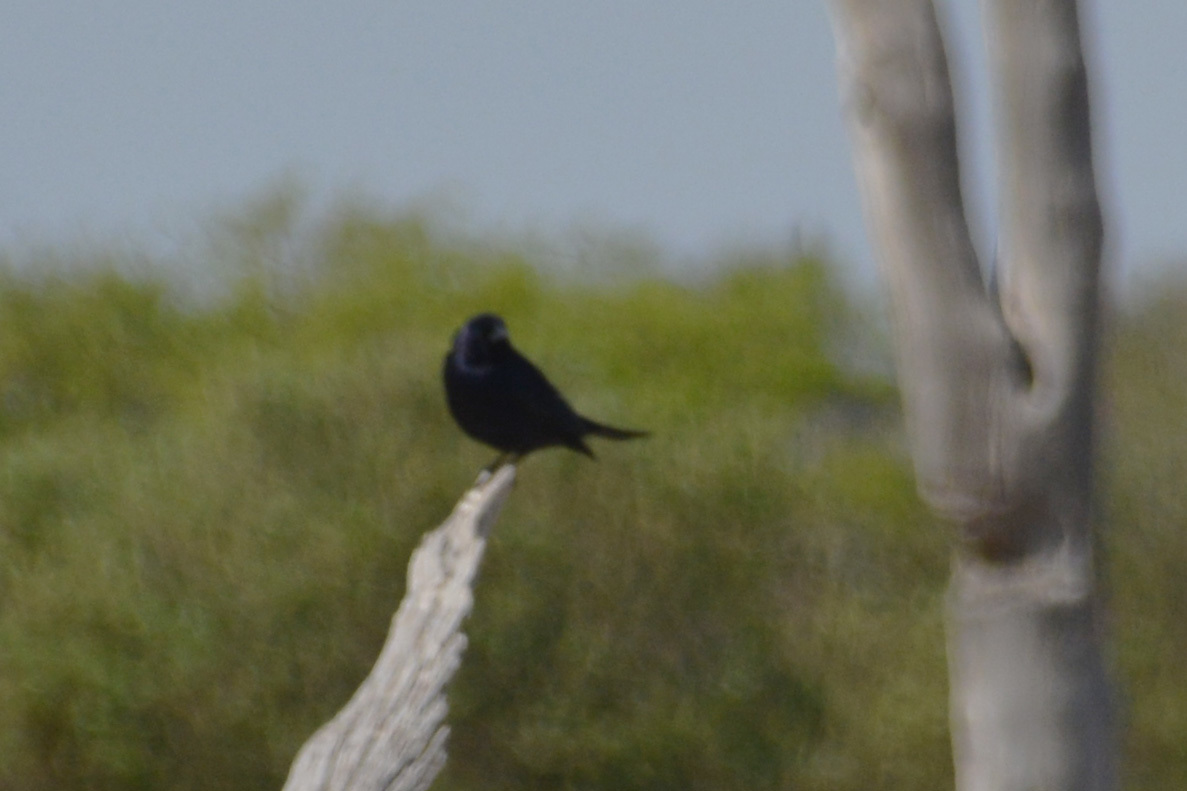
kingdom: Animalia
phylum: Chordata
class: Aves
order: Passeriformes
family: Icteridae
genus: Molothrus
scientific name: Molothrus bonariensis
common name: Shiny cowbird
